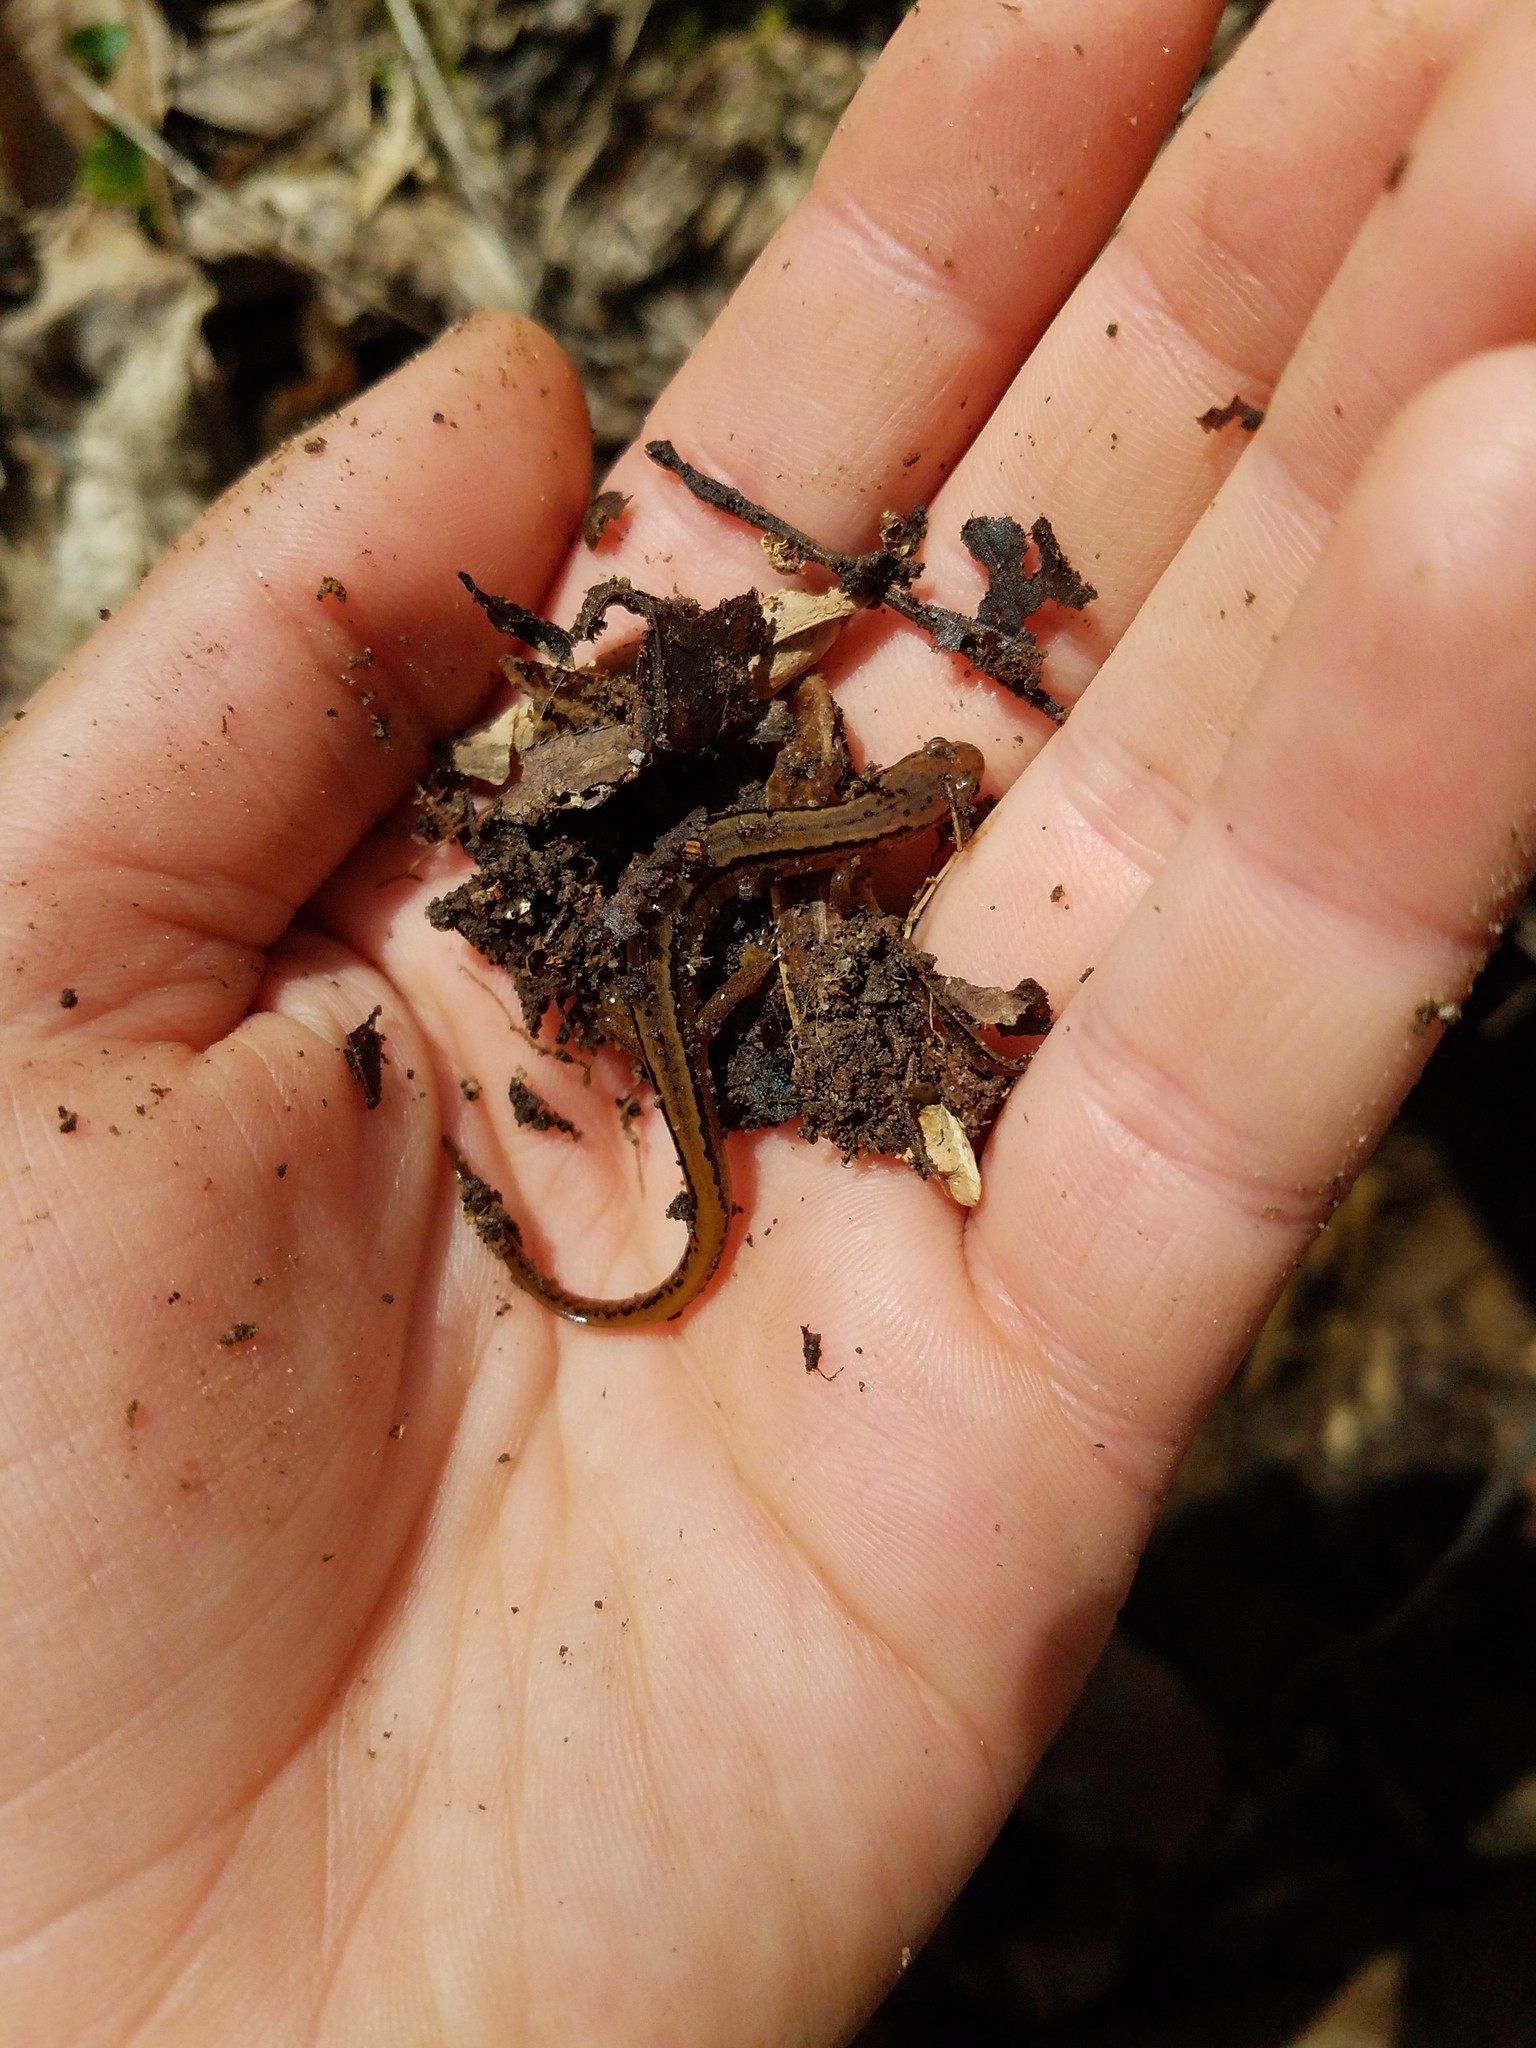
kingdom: Animalia
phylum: Chordata
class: Amphibia
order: Caudata
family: Plethodontidae
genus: Eurycea
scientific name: Eurycea bislineata
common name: Northern two-lined salamander
